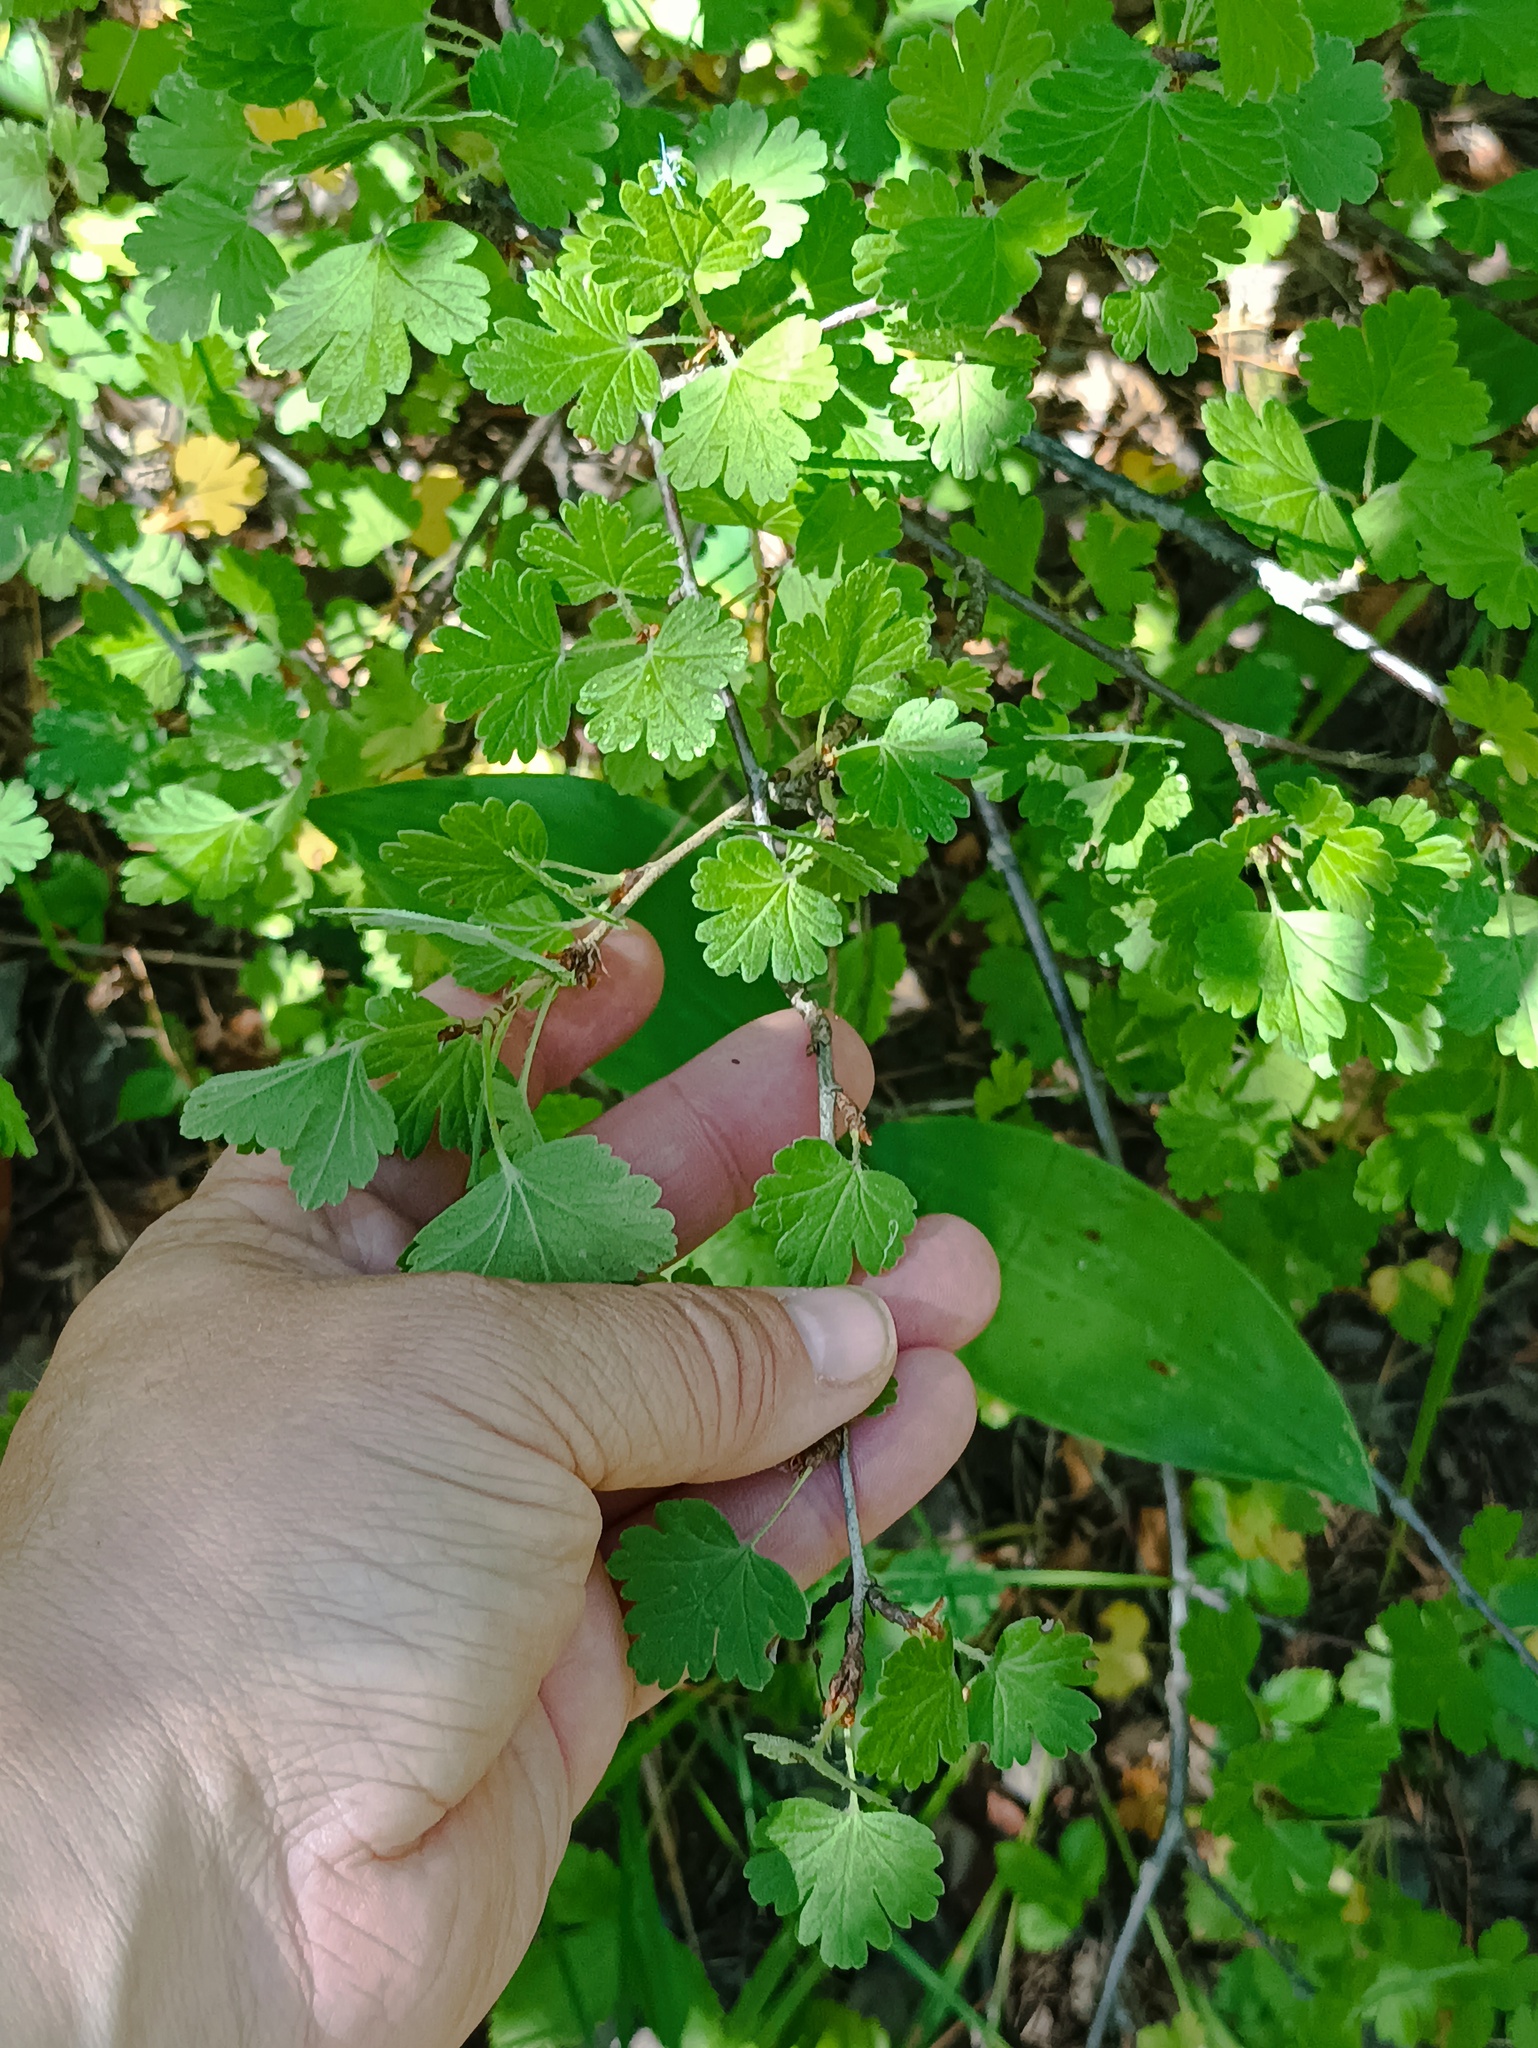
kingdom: Plantae
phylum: Tracheophyta
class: Magnoliopsida
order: Saxifragales
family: Grossulariaceae
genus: Ribes
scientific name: Ribes uva-crispa
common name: Gooseberry
